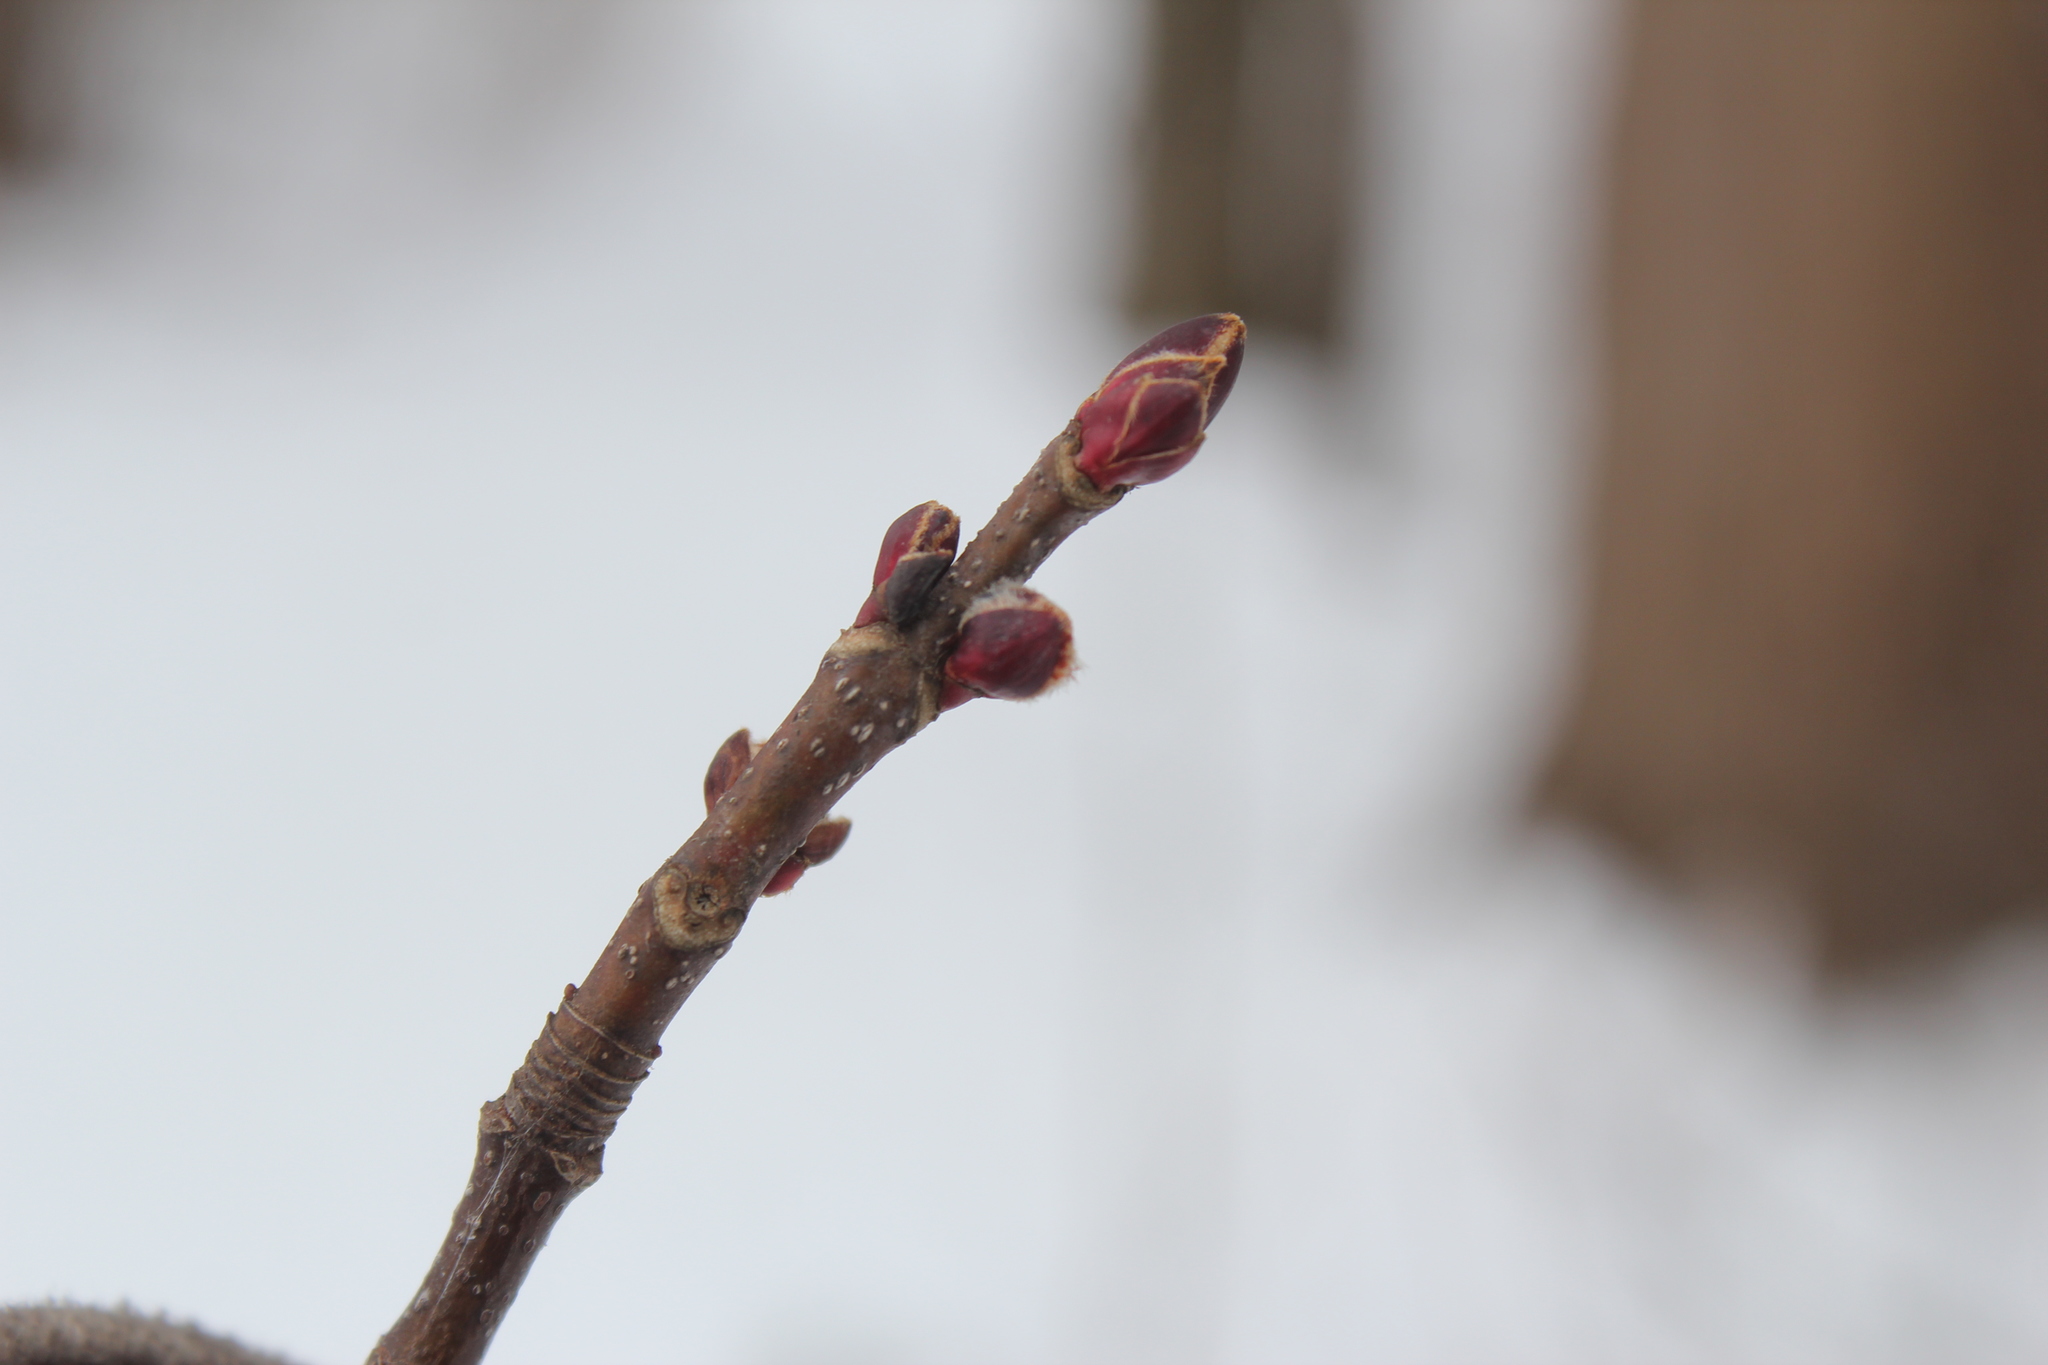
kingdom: Plantae
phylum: Tracheophyta
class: Magnoliopsida
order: Sapindales
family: Sapindaceae
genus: Acer
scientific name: Acer rubrum
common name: Red maple
